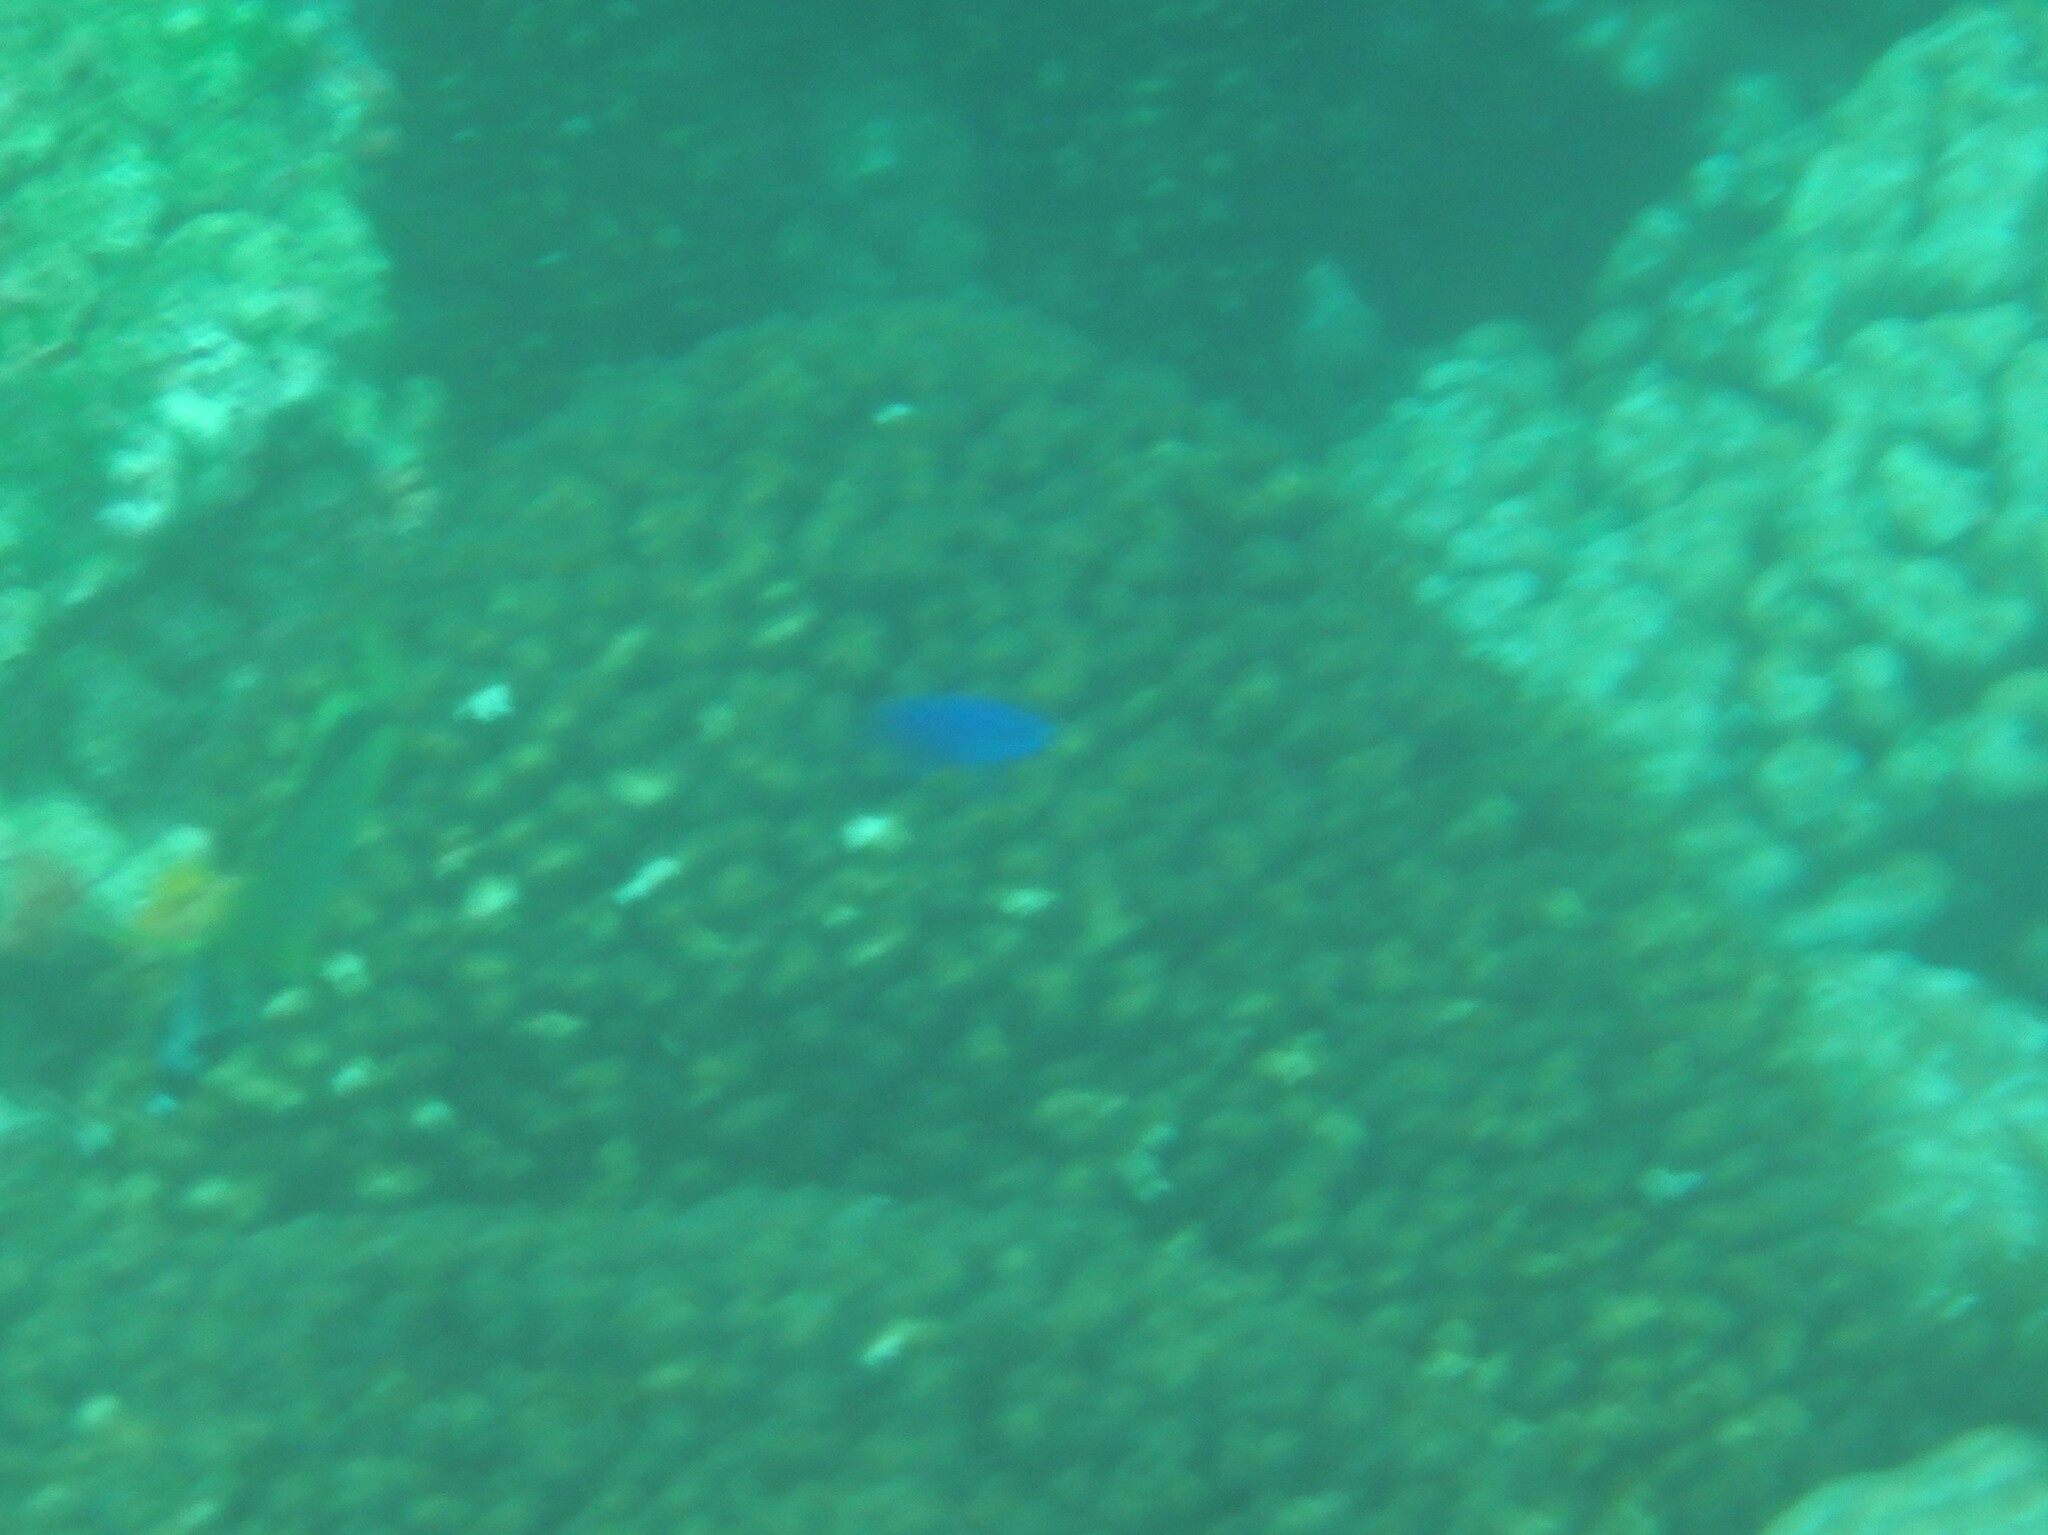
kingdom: Animalia
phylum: Chordata
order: Perciformes
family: Pomacentridae
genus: Stegastes
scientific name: Stegastes acapulcoensis
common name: Acapulco damselfish
